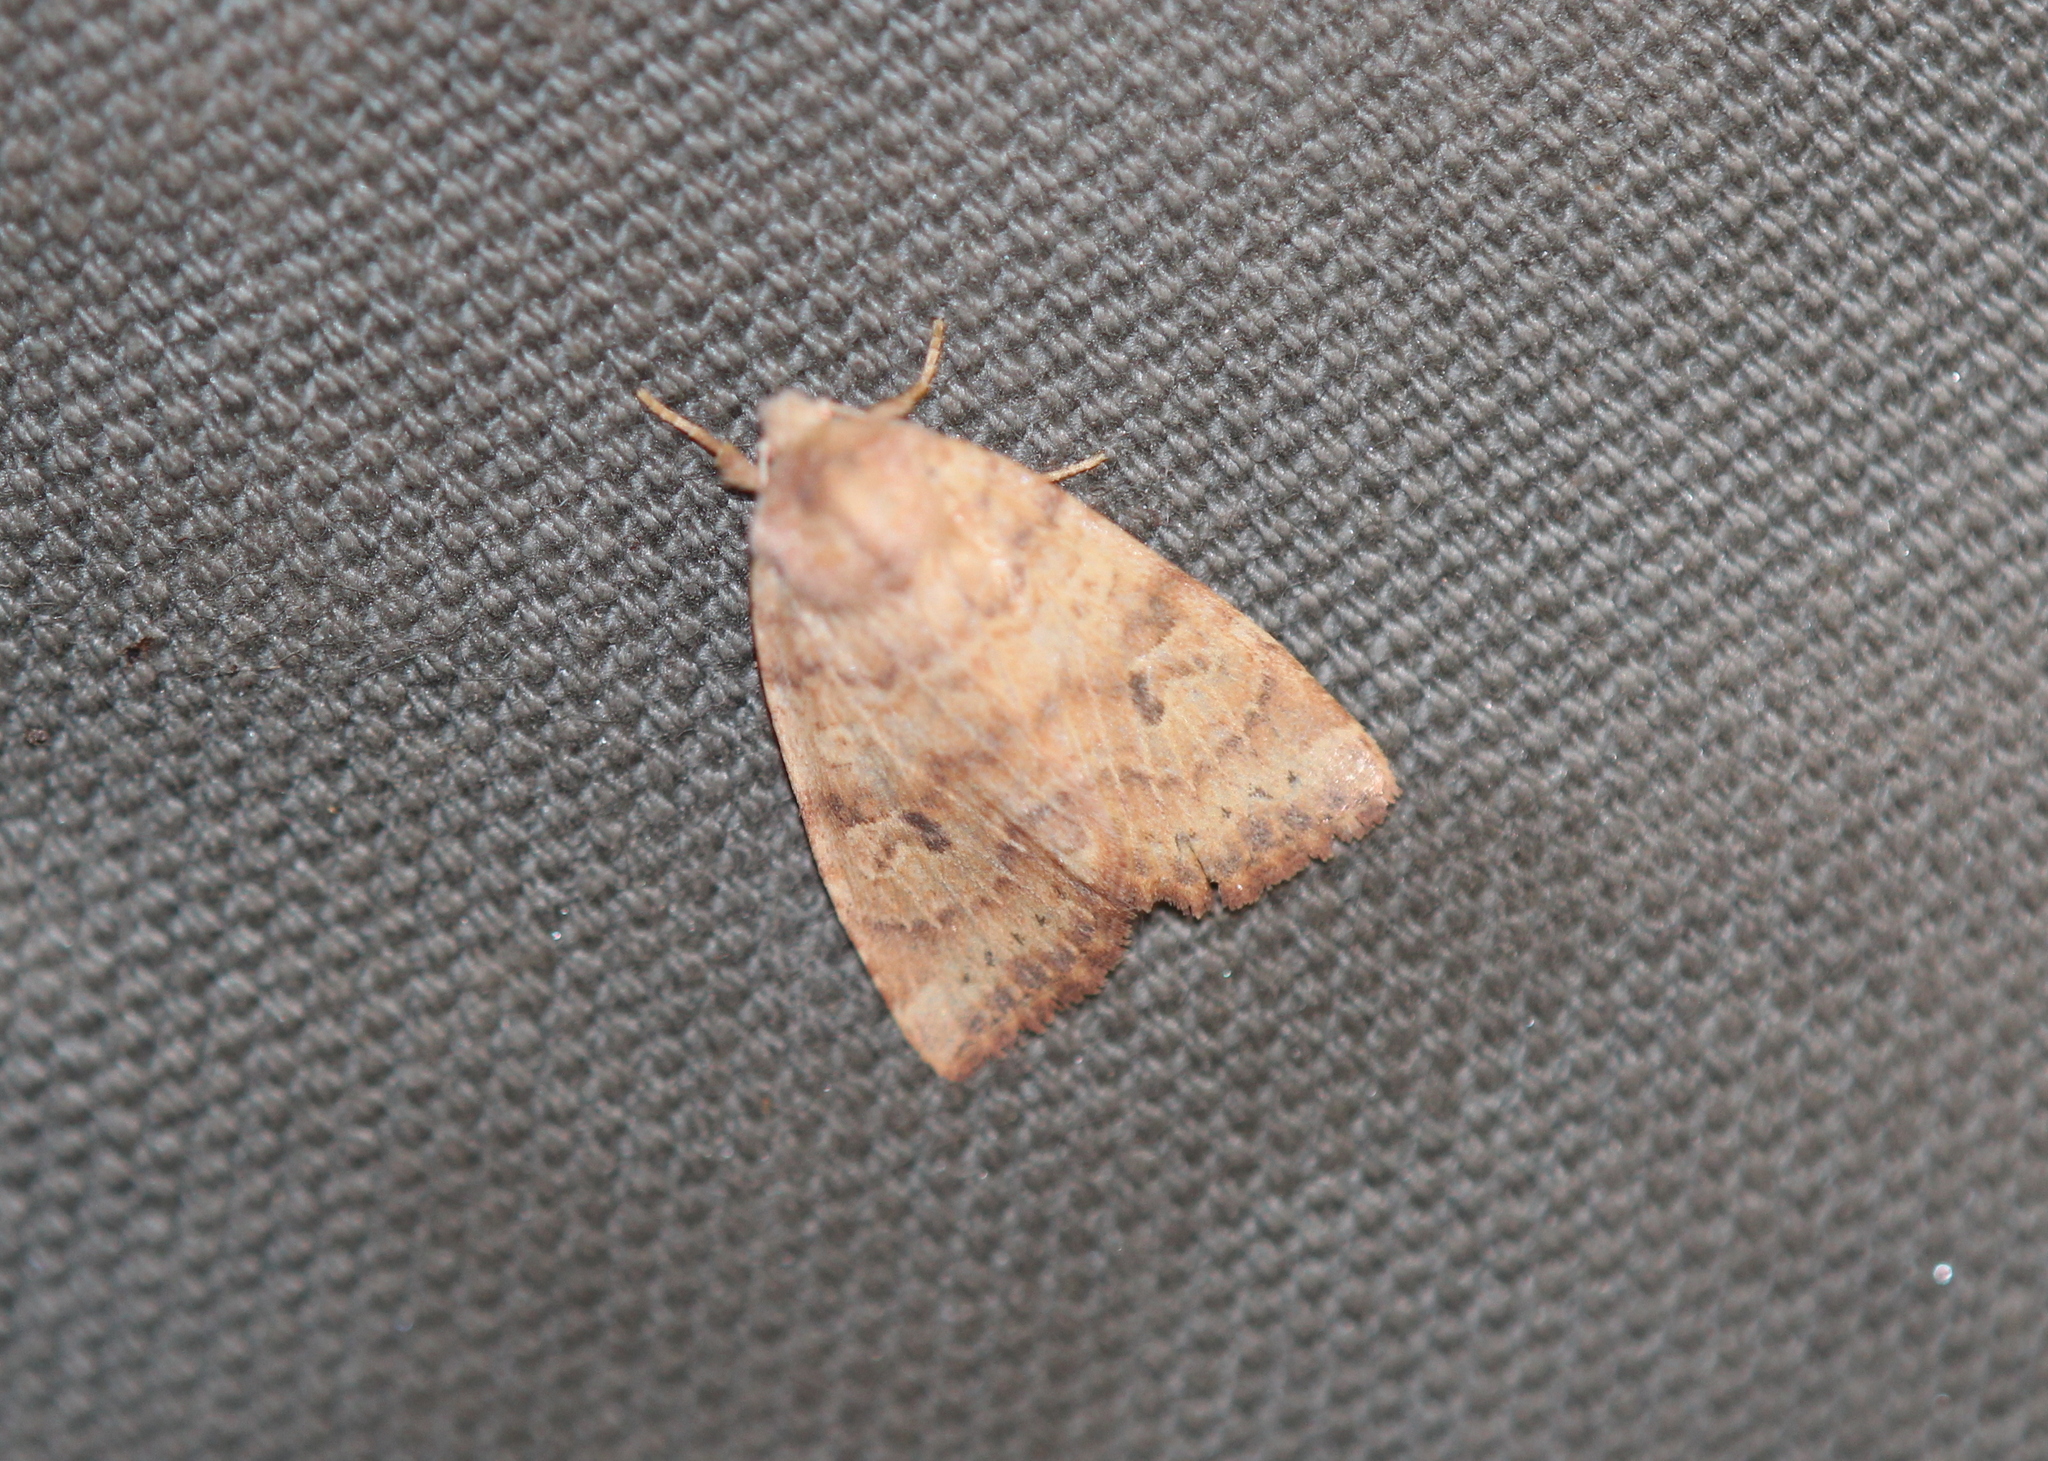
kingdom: Animalia
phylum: Arthropoda
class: Insecta
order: Lepidoptera
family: Noctuidae
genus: Anathix
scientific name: Anathix puta
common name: Puta sallow
